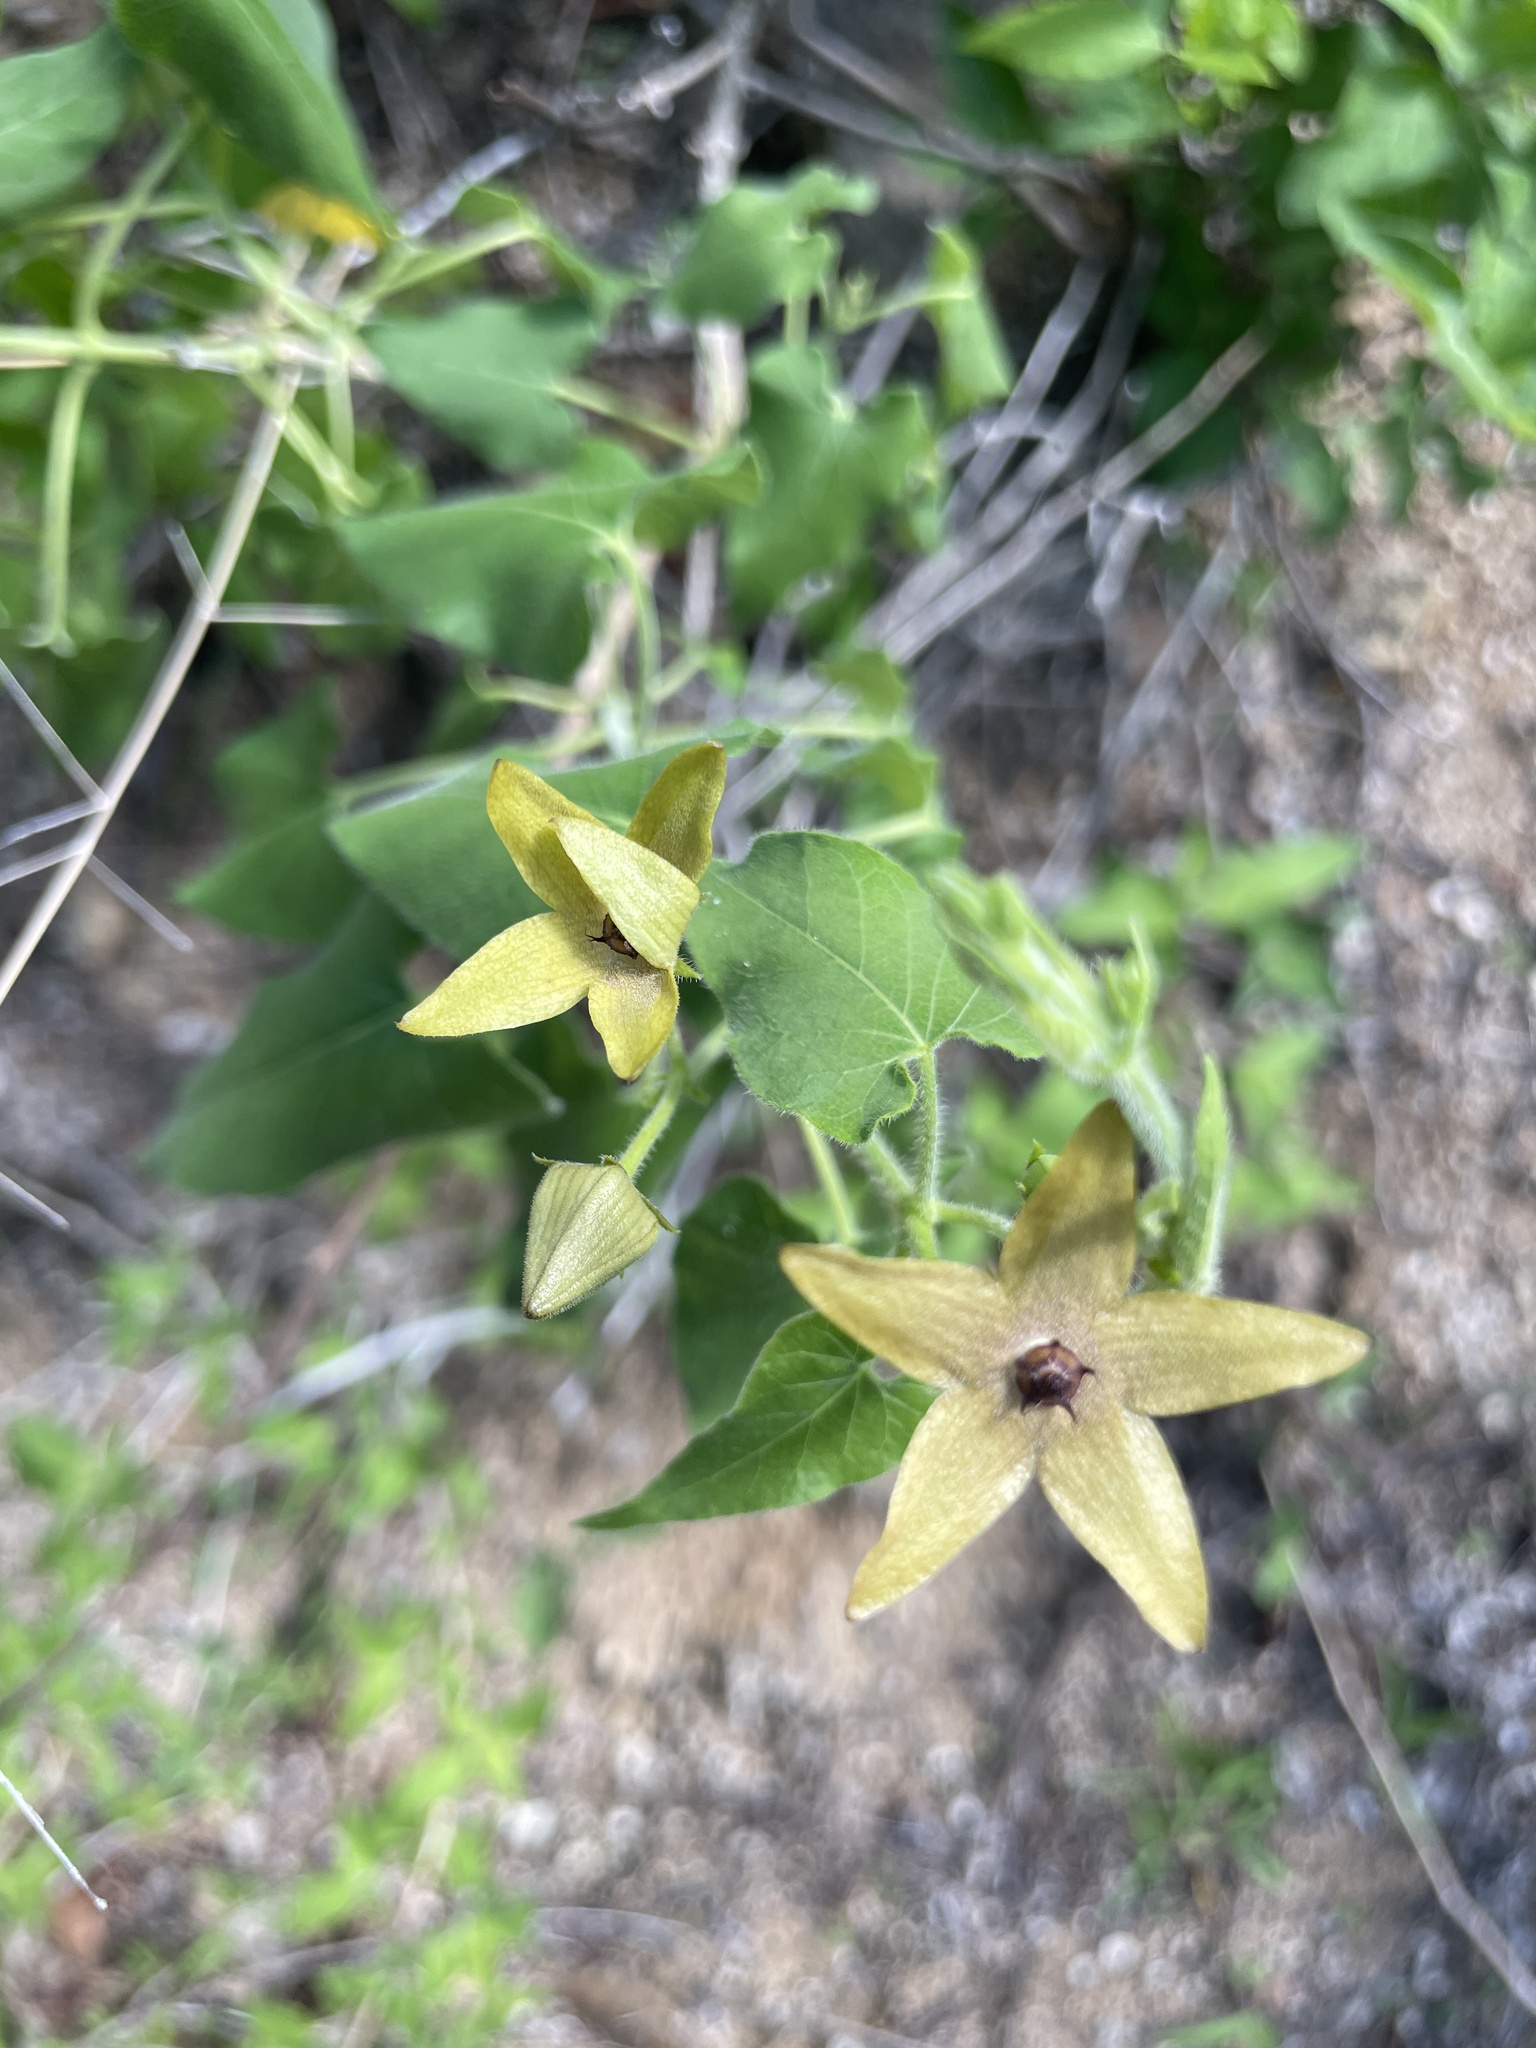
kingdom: Plantae
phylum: Tracheophyta
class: Magnoliopsida
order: Gentianales
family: Apocynaceae
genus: Matelea
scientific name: Matelea umbellata
